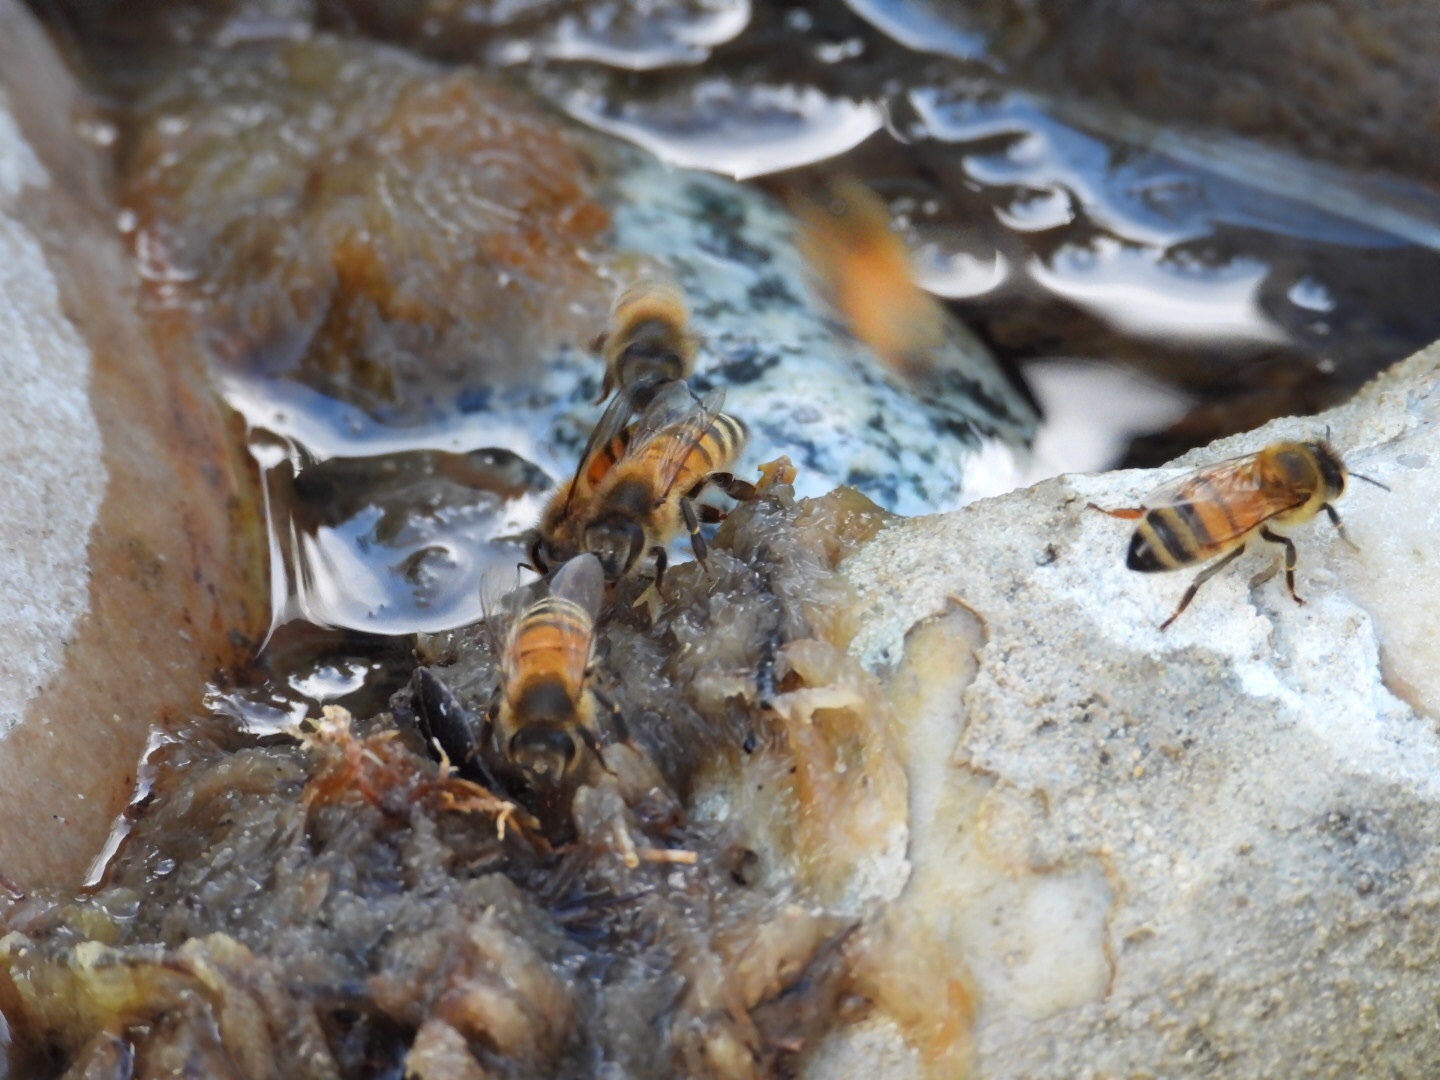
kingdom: Animalia
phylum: Arthropoda
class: Insecta
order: Hymenoptera
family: Apidae
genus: Apis
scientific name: Apis mellifera
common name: Honey bee
